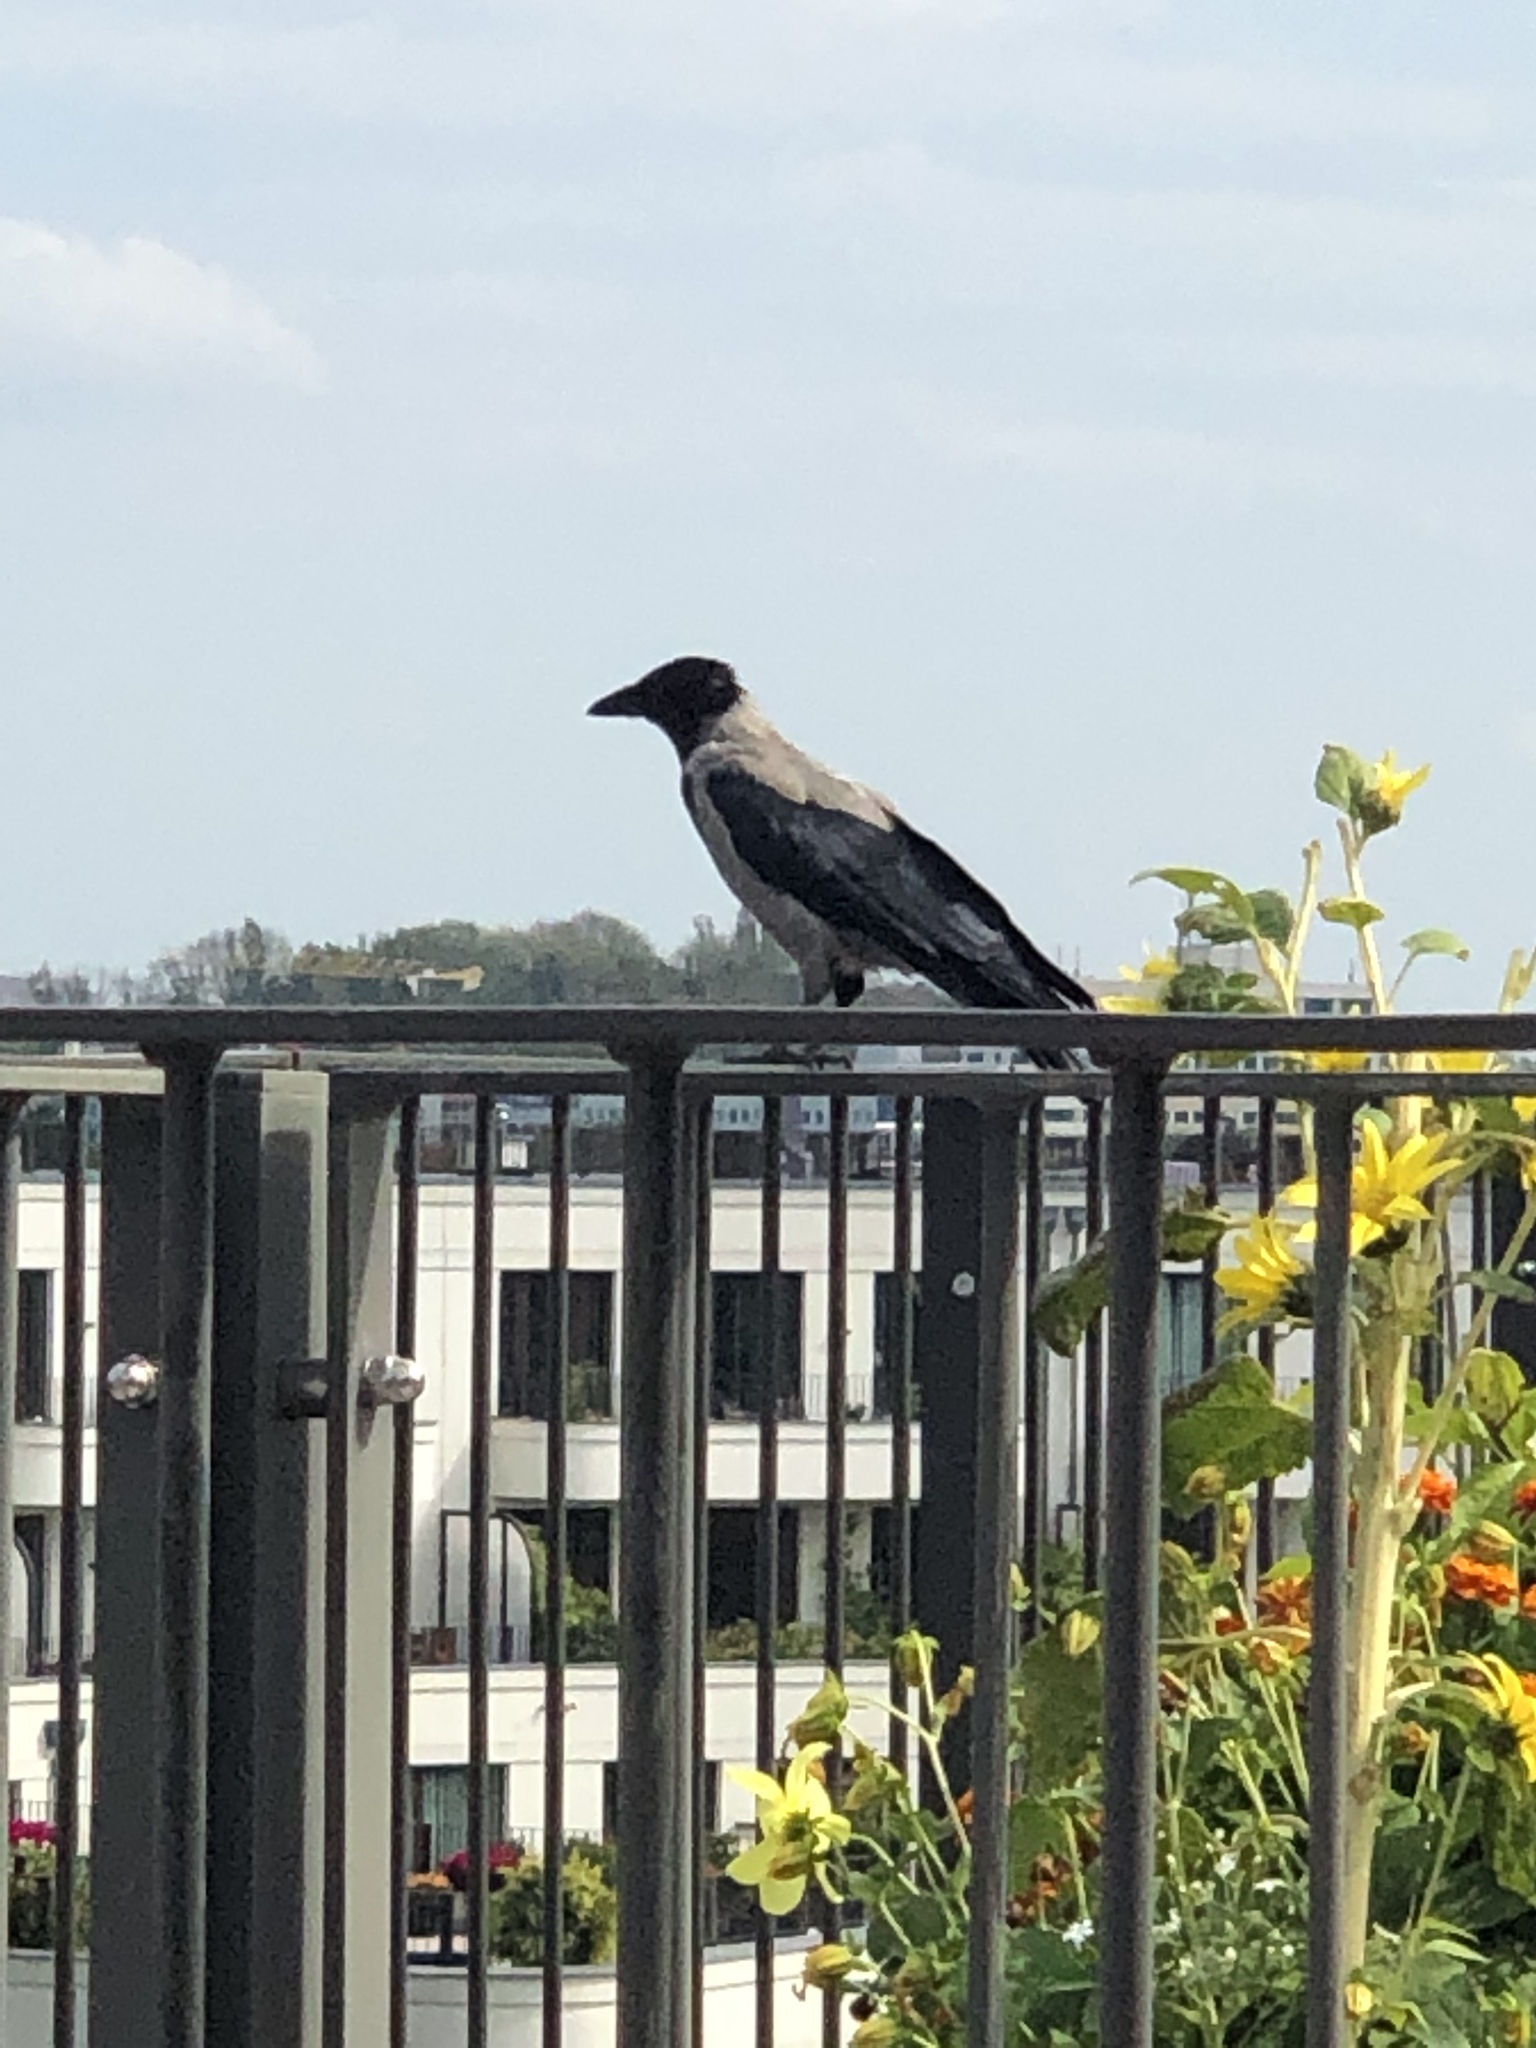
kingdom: Animalia
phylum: Chordata
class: Aves
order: Passeriformes
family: Corvidae
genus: Corvus
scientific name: Corvus cornix
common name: Hooded crow
